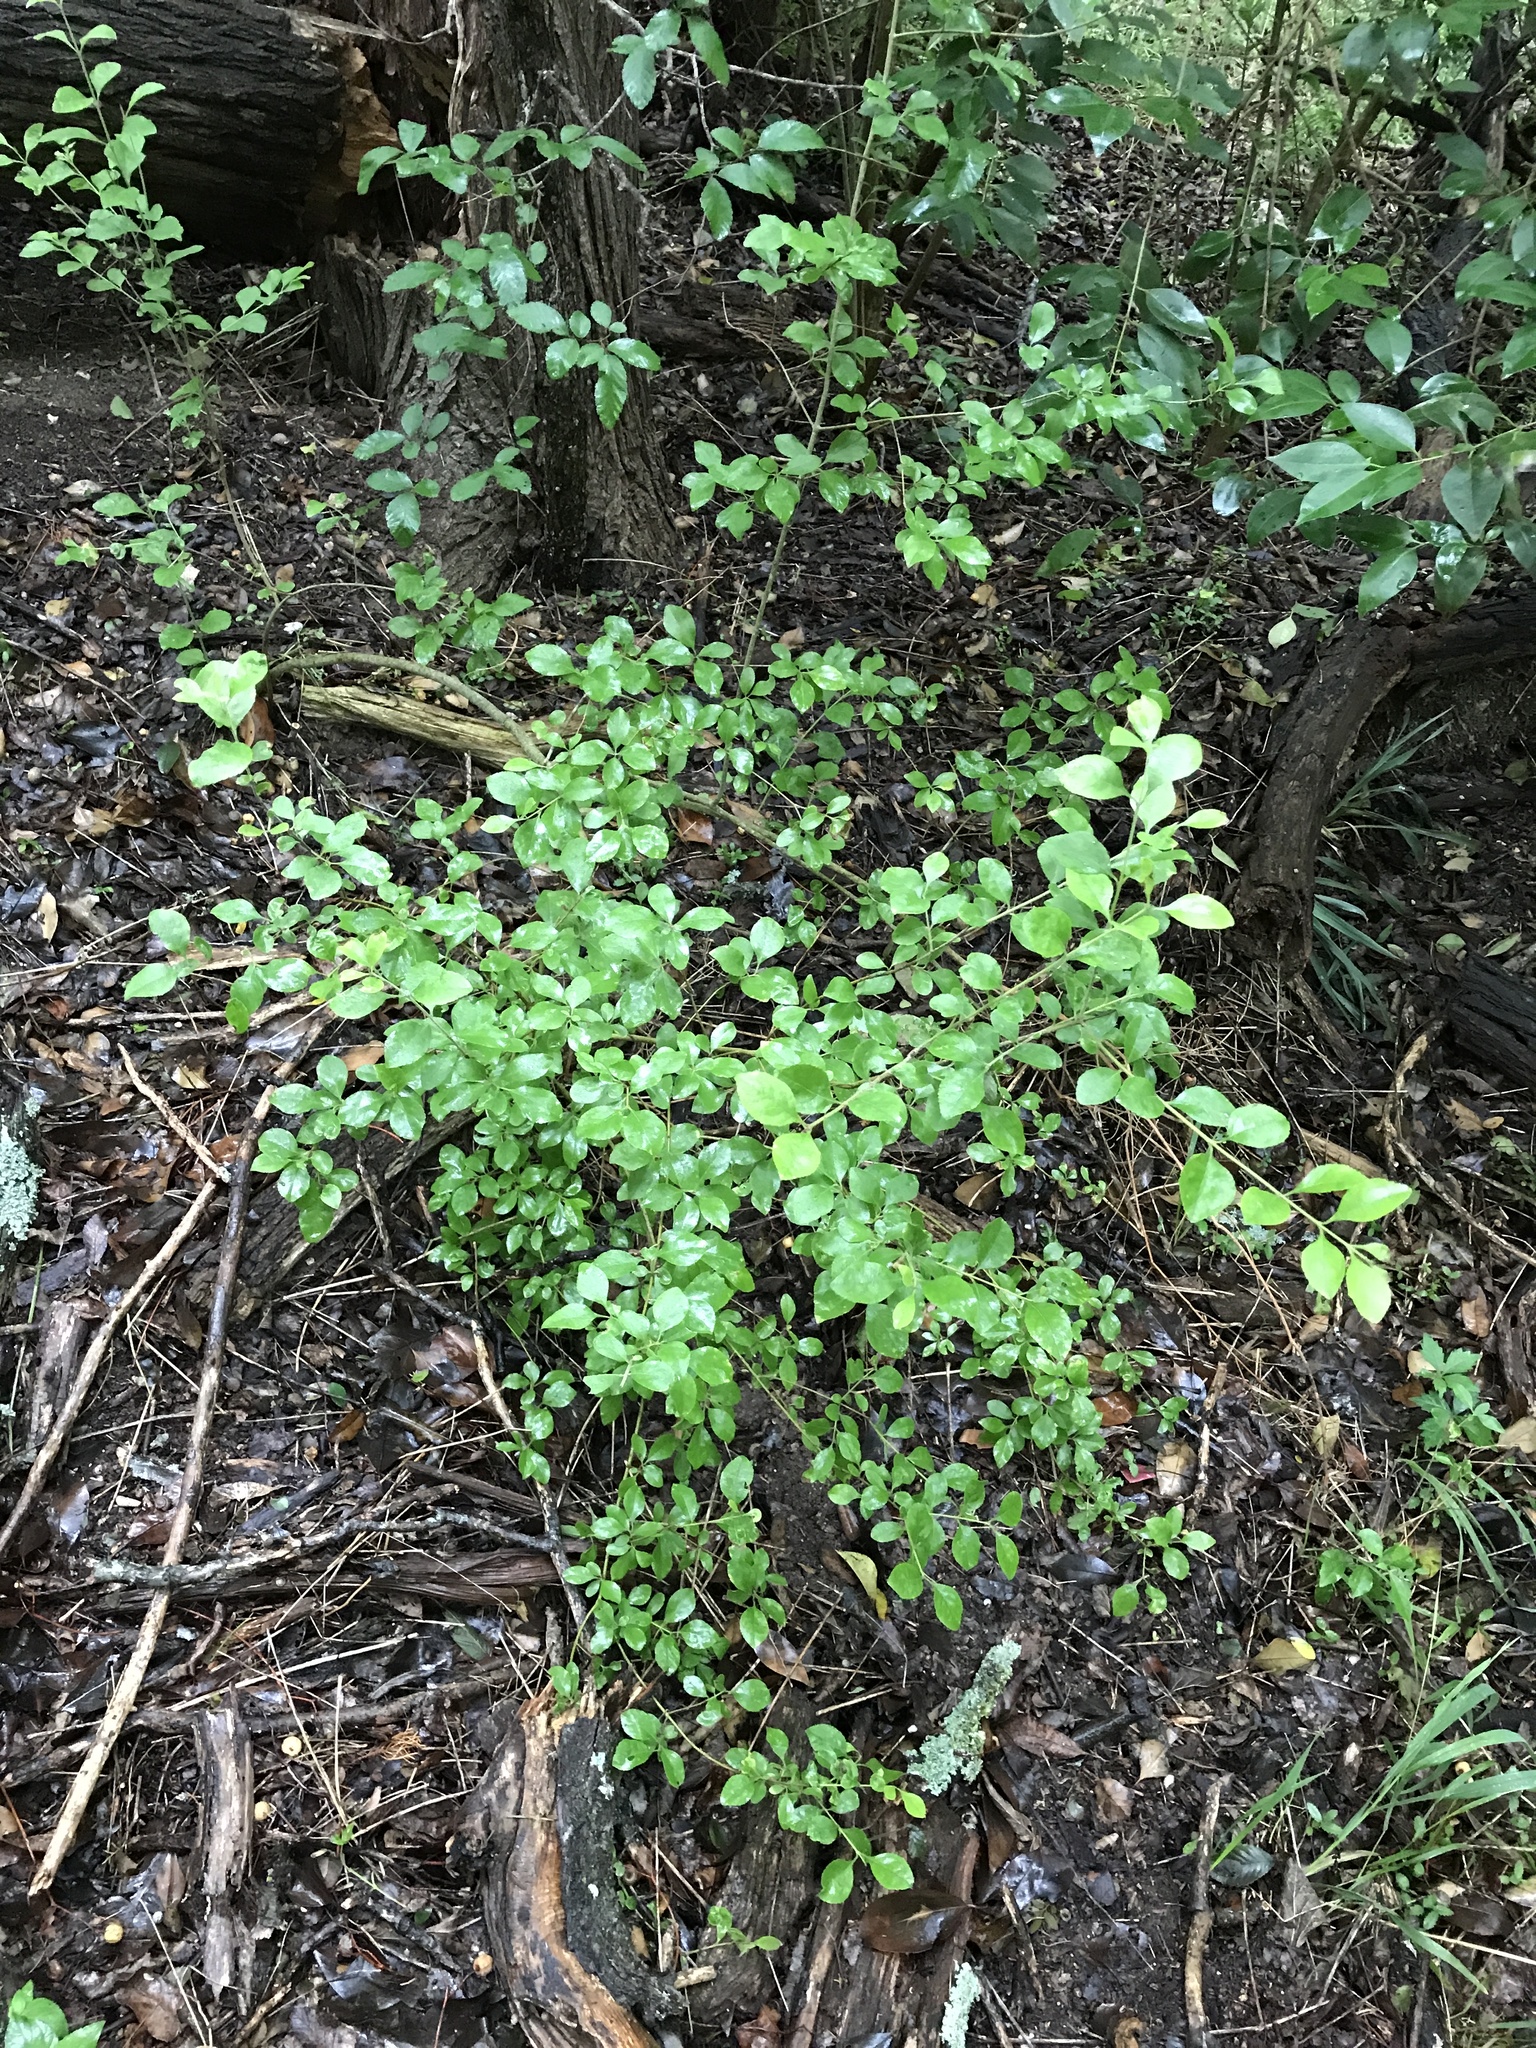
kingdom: Plantae
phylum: Tracheophyta
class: Magnoliopsida
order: Lamiales
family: Oleaceae
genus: Forestiera
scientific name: Forestiera pubescens
